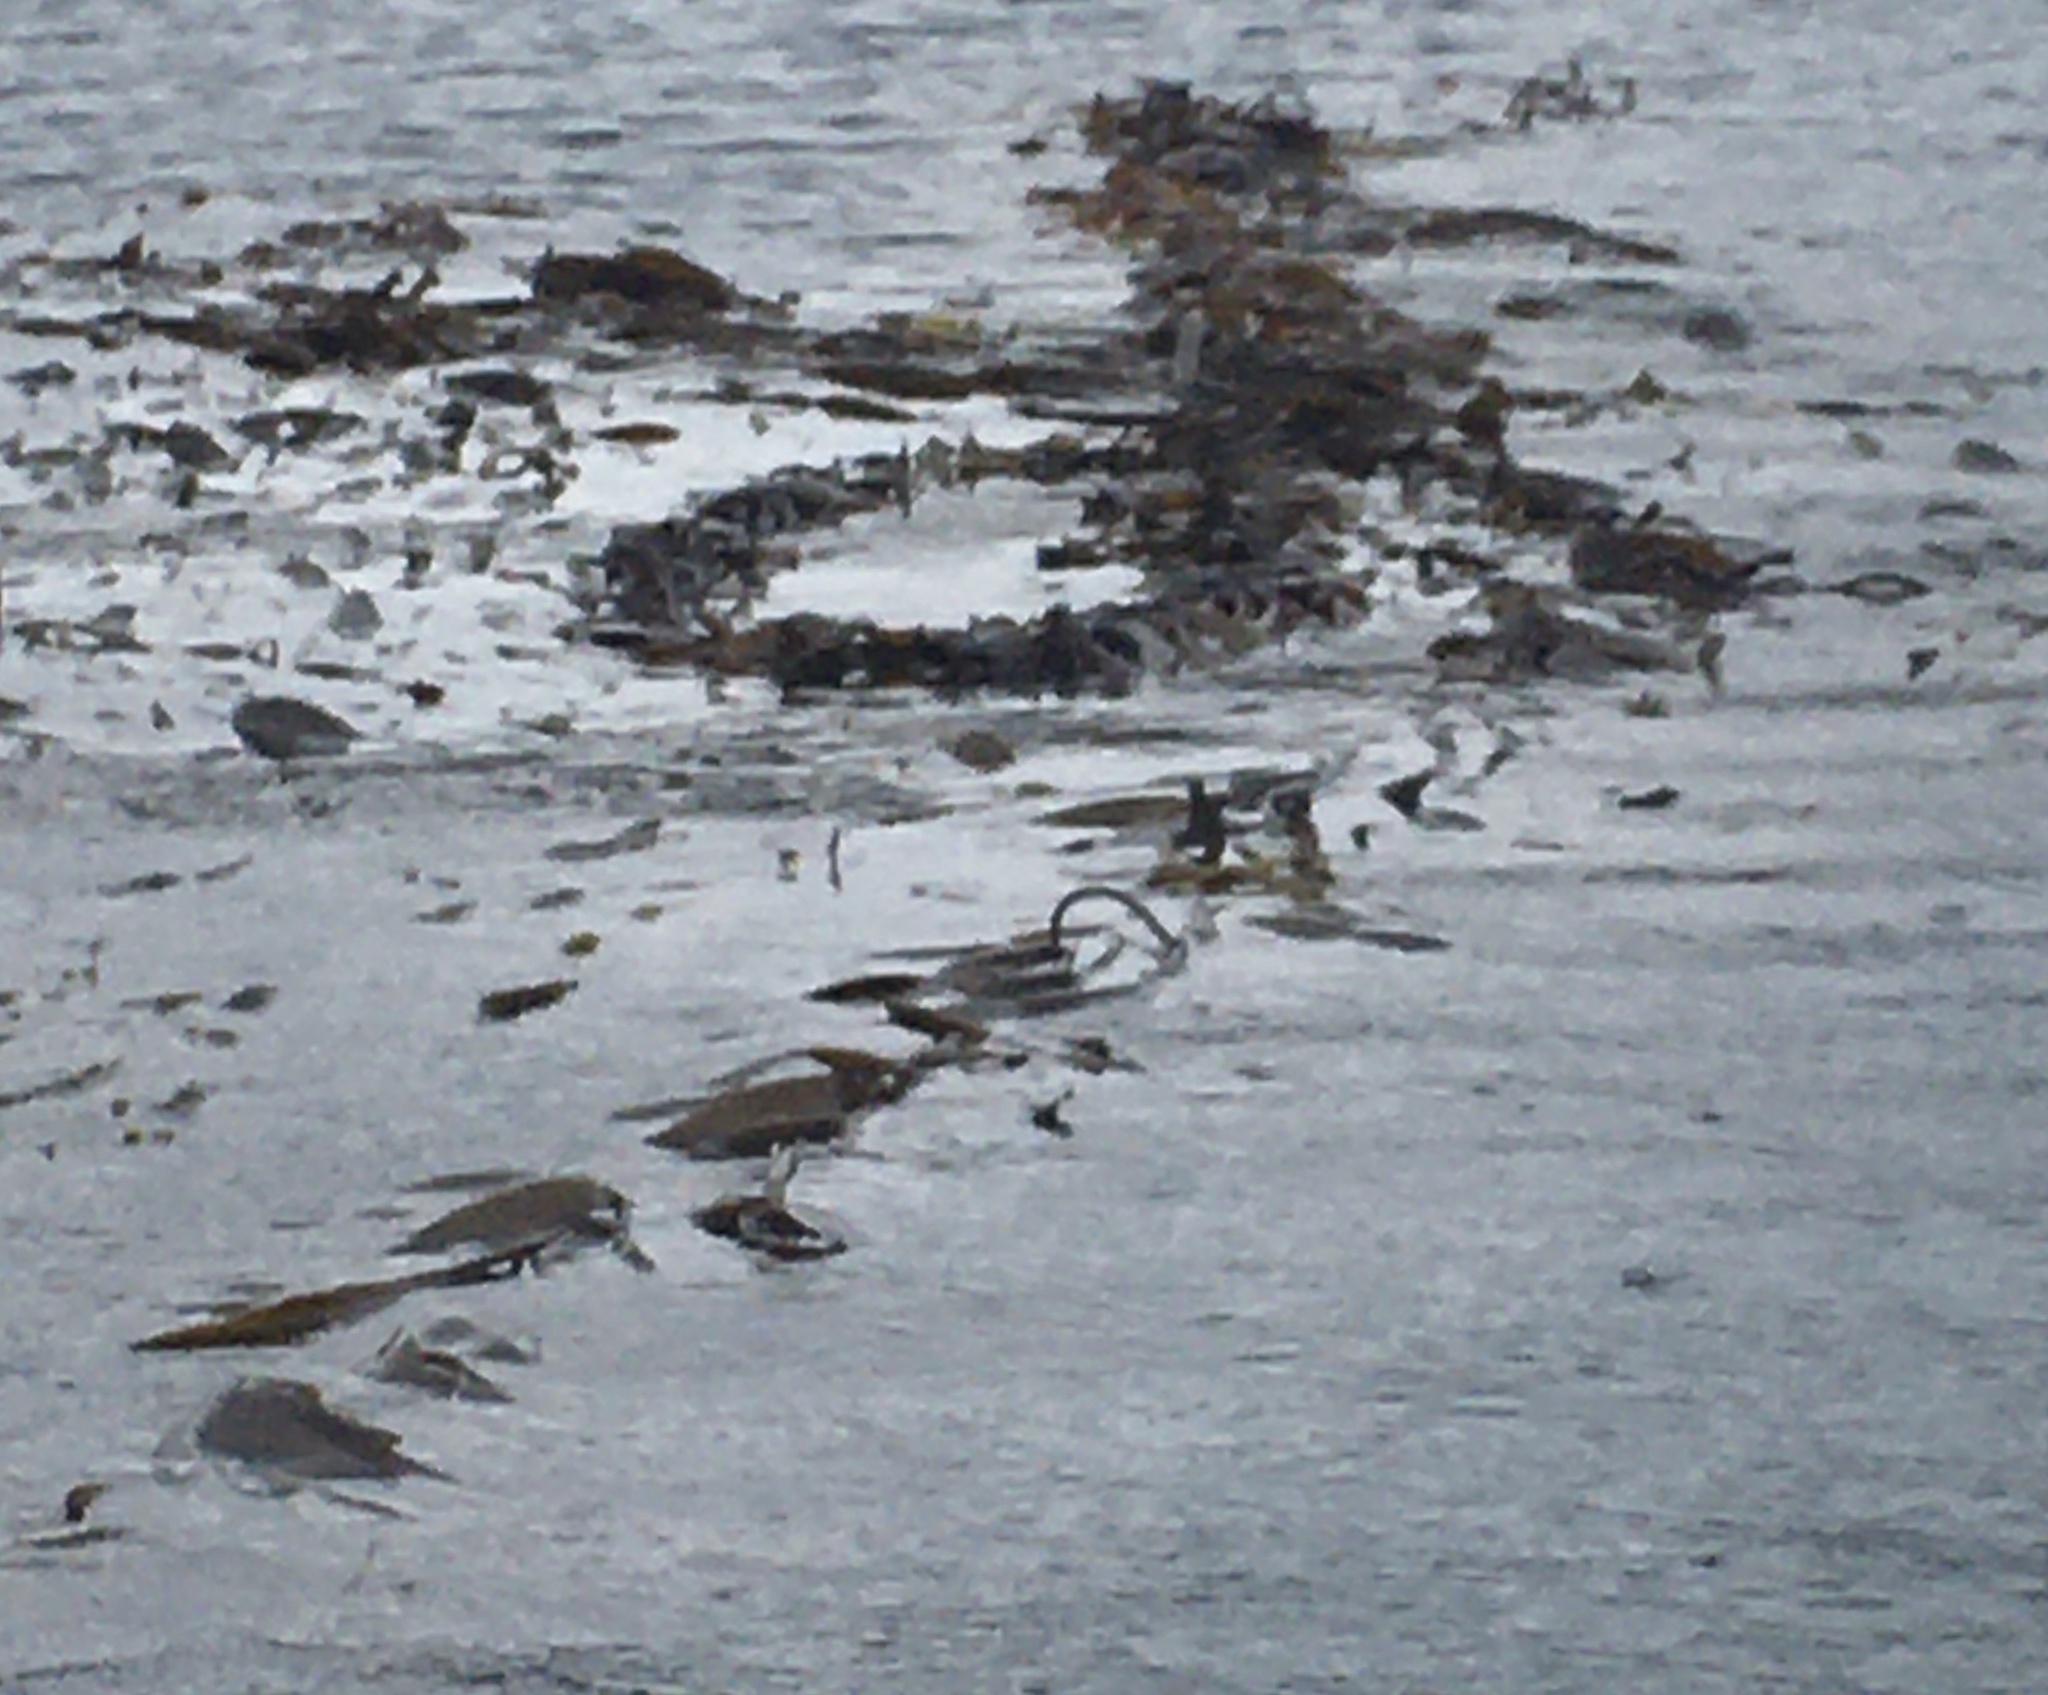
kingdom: Chromista
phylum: Ochrophyta
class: Phaeophyceae
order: Laminariales
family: Laminariaceae
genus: Macrocystis
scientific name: Macrocystis pyrifera
